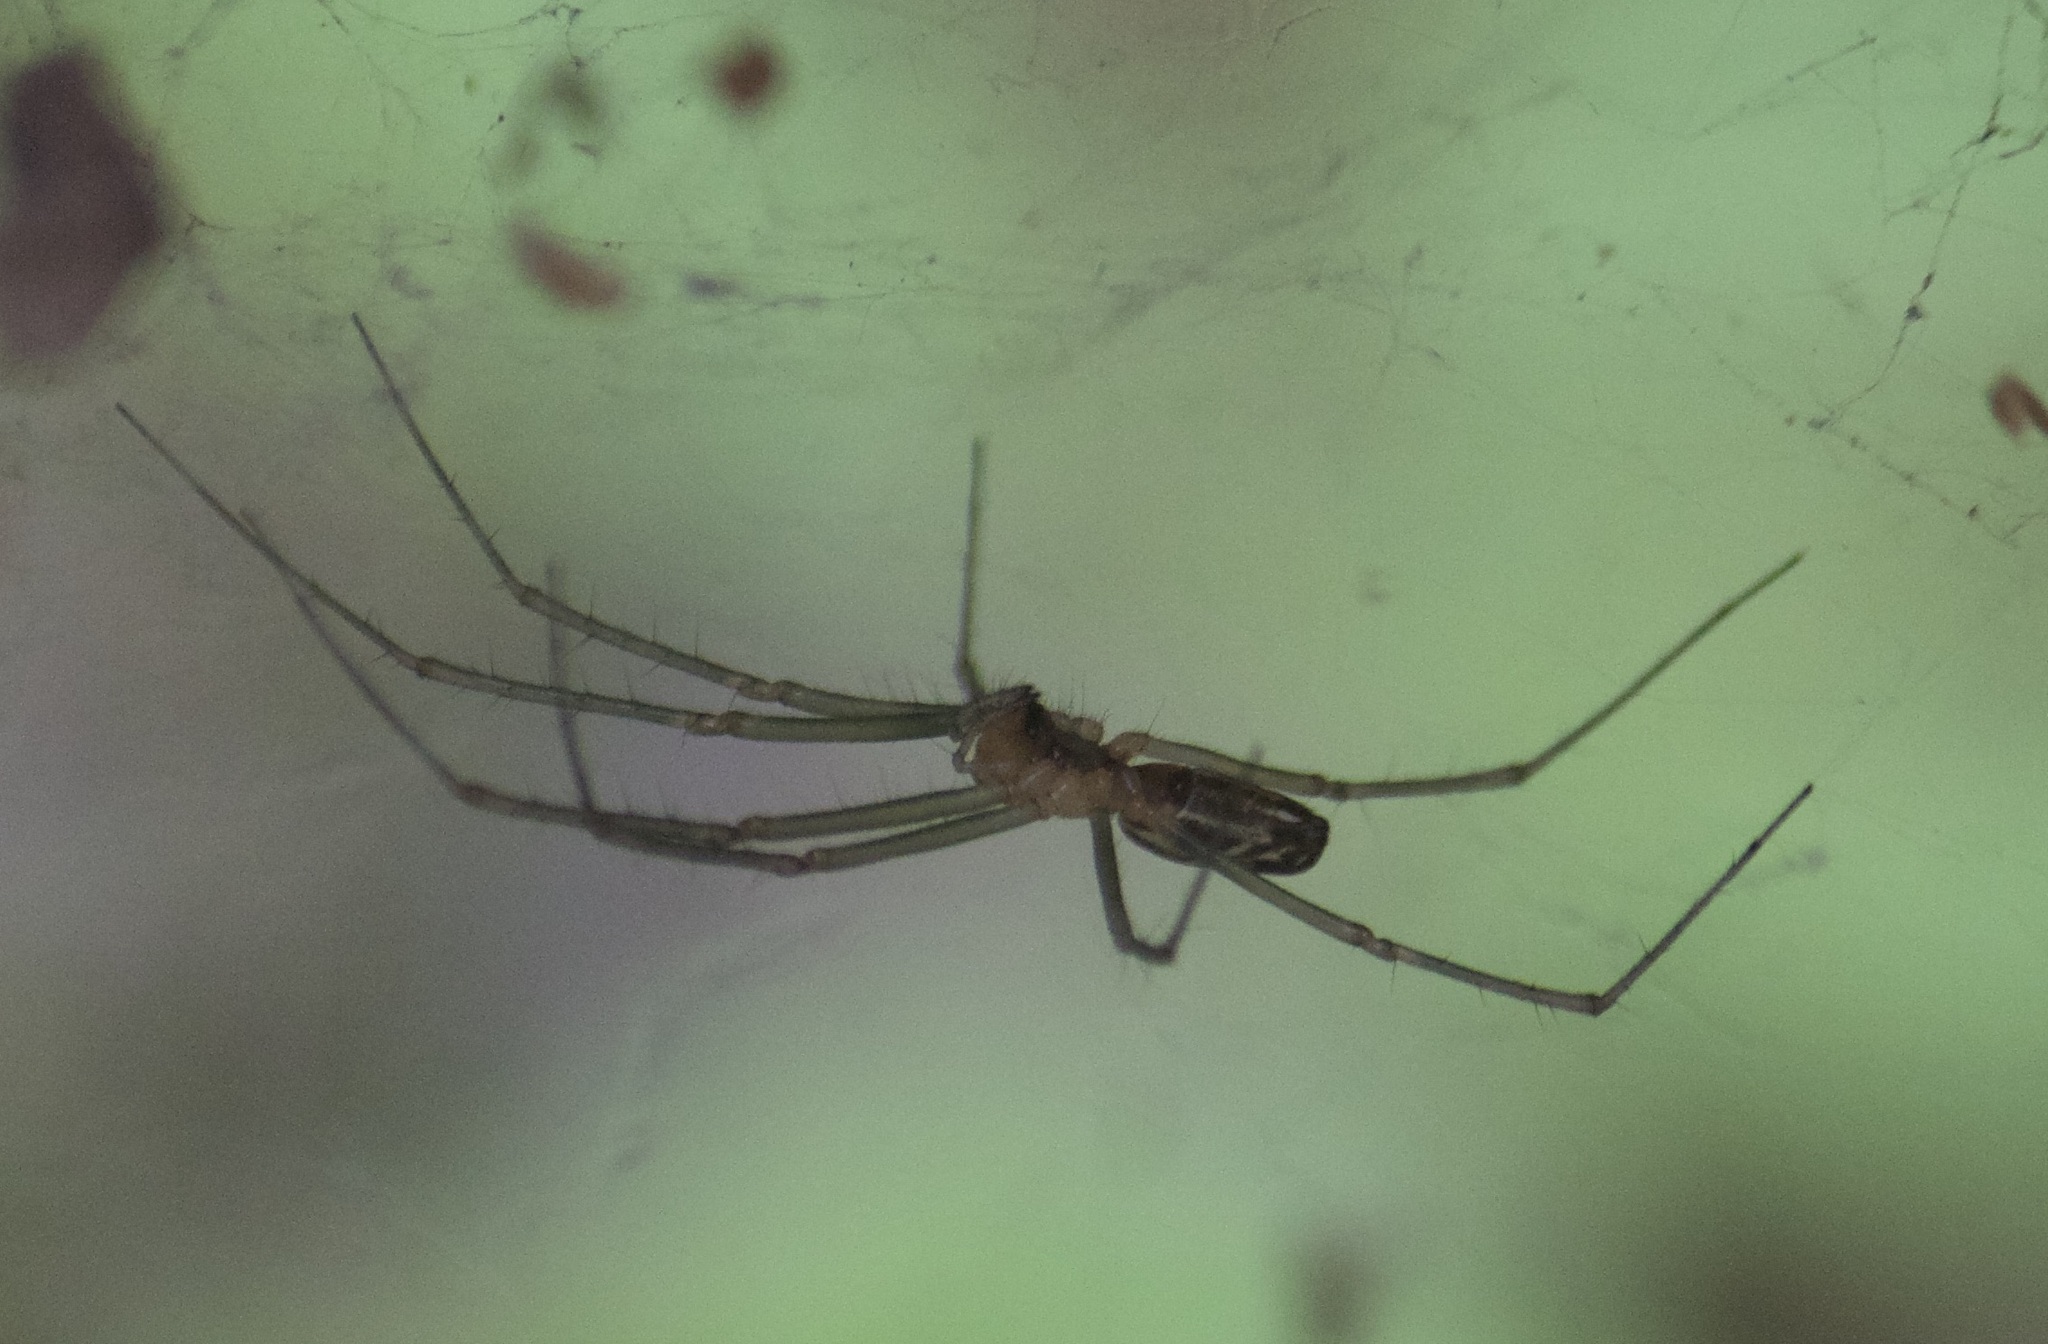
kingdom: Animalia
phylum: Arthropoda
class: Arachnida
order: Araneae
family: Linyphiidae
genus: Neriene
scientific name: Neriene litigiosa
